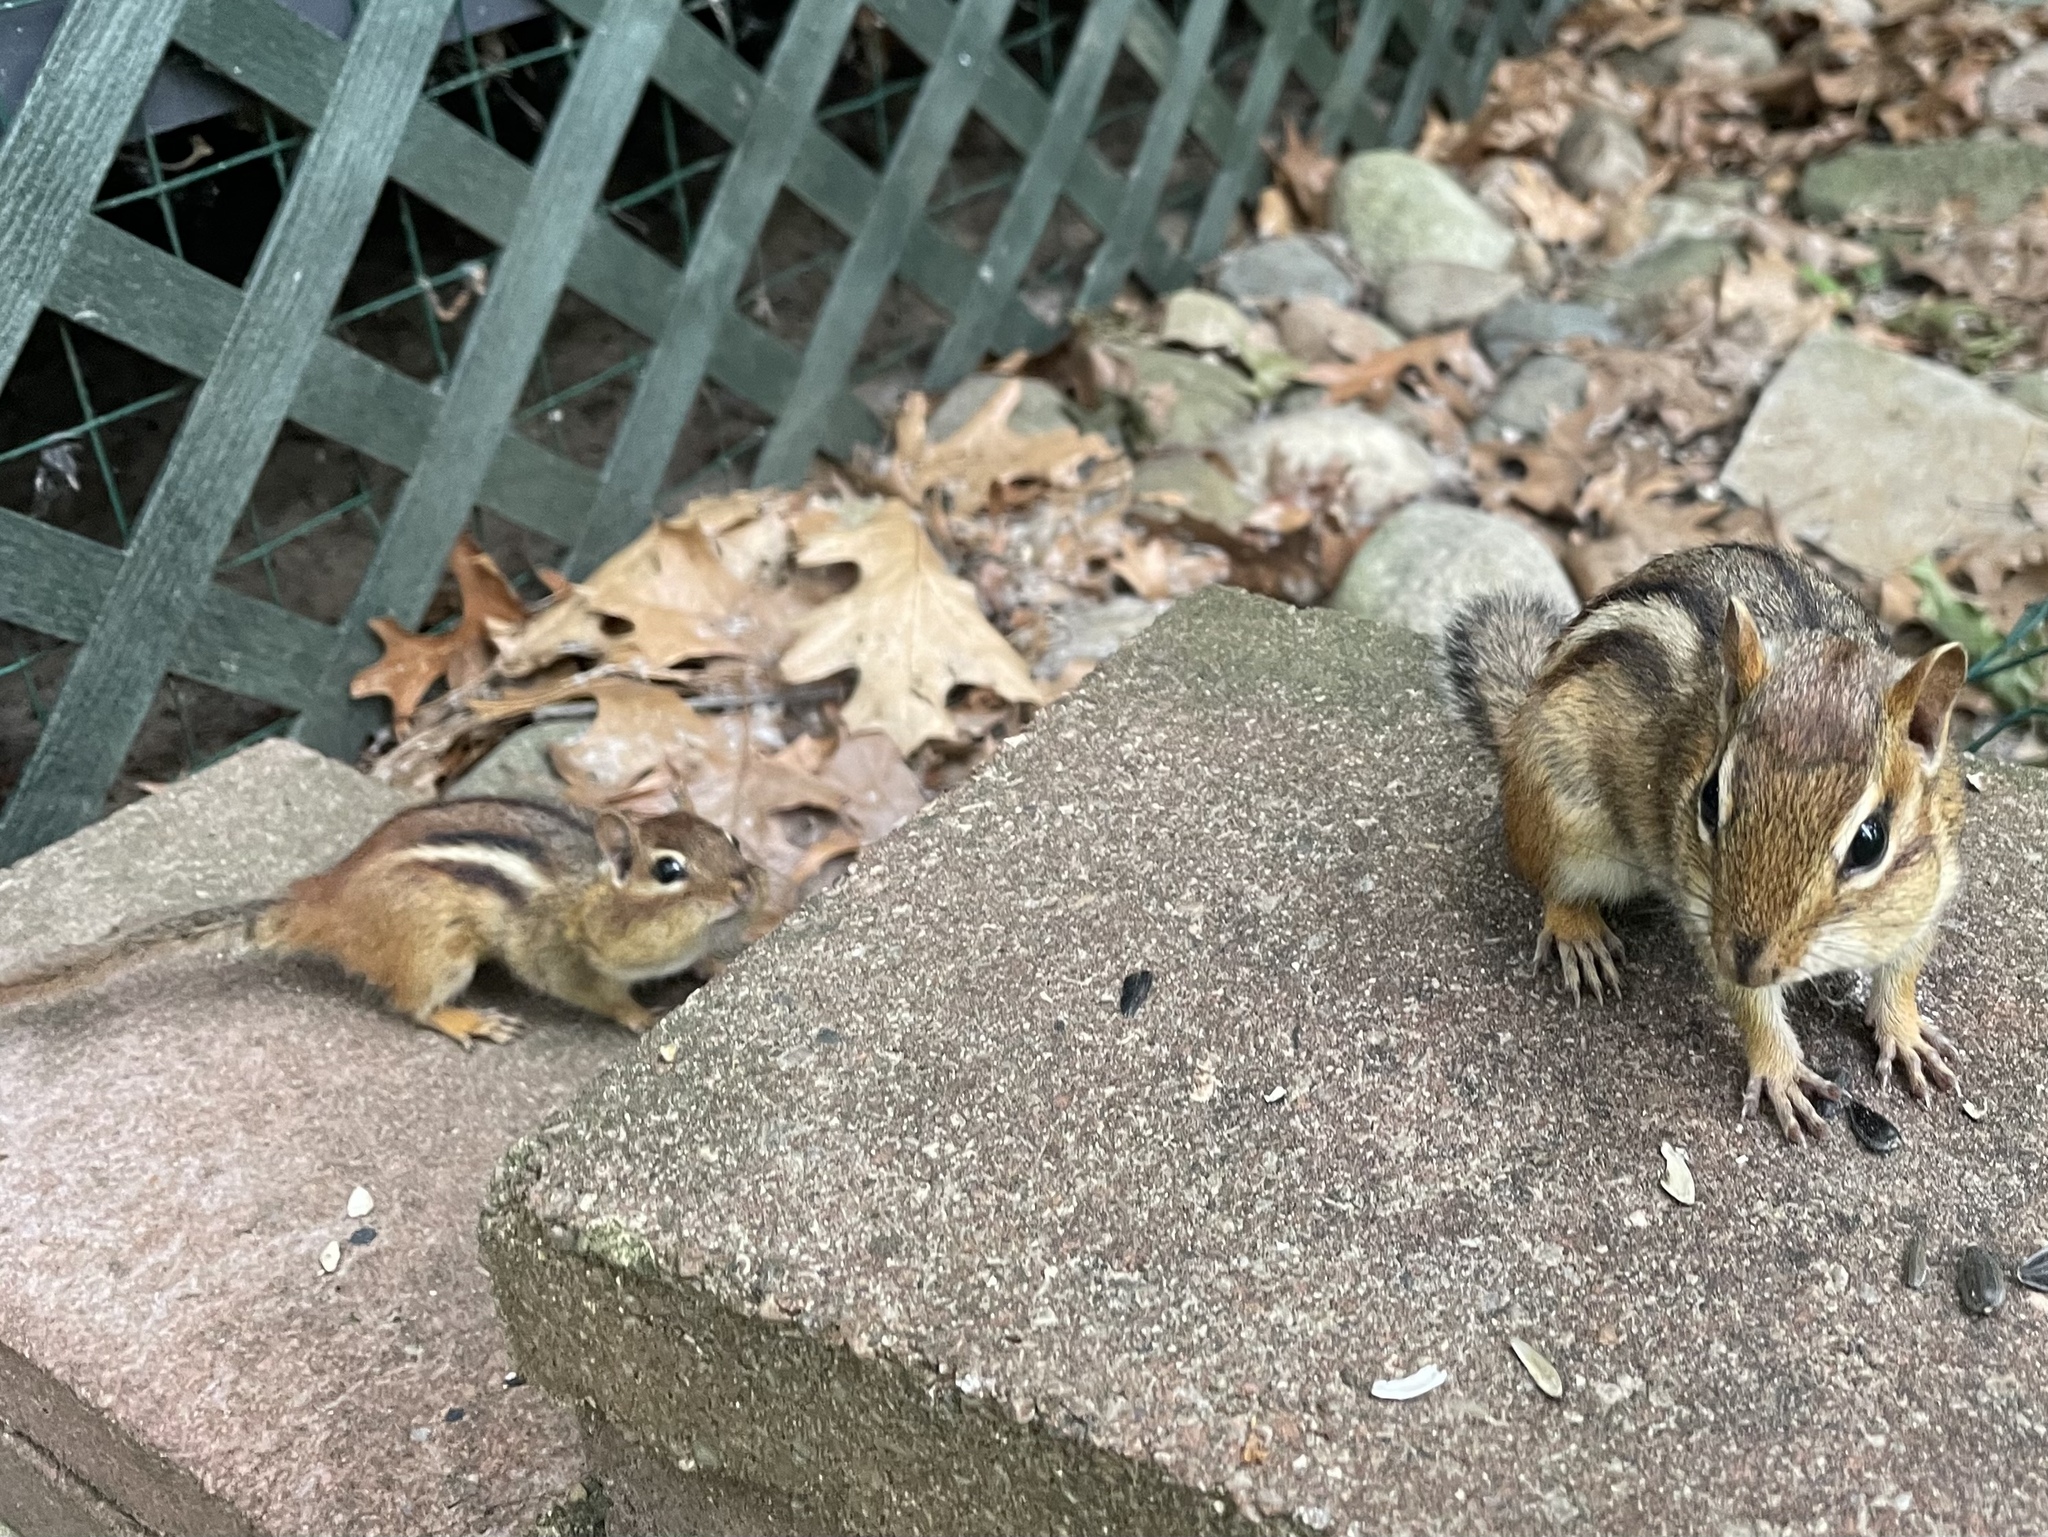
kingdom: Animalia
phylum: Chordata
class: Mammalia
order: Rodentia
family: Sciuridae
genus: Tamias
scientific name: Tamias striatus
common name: Eastern chipmunk
